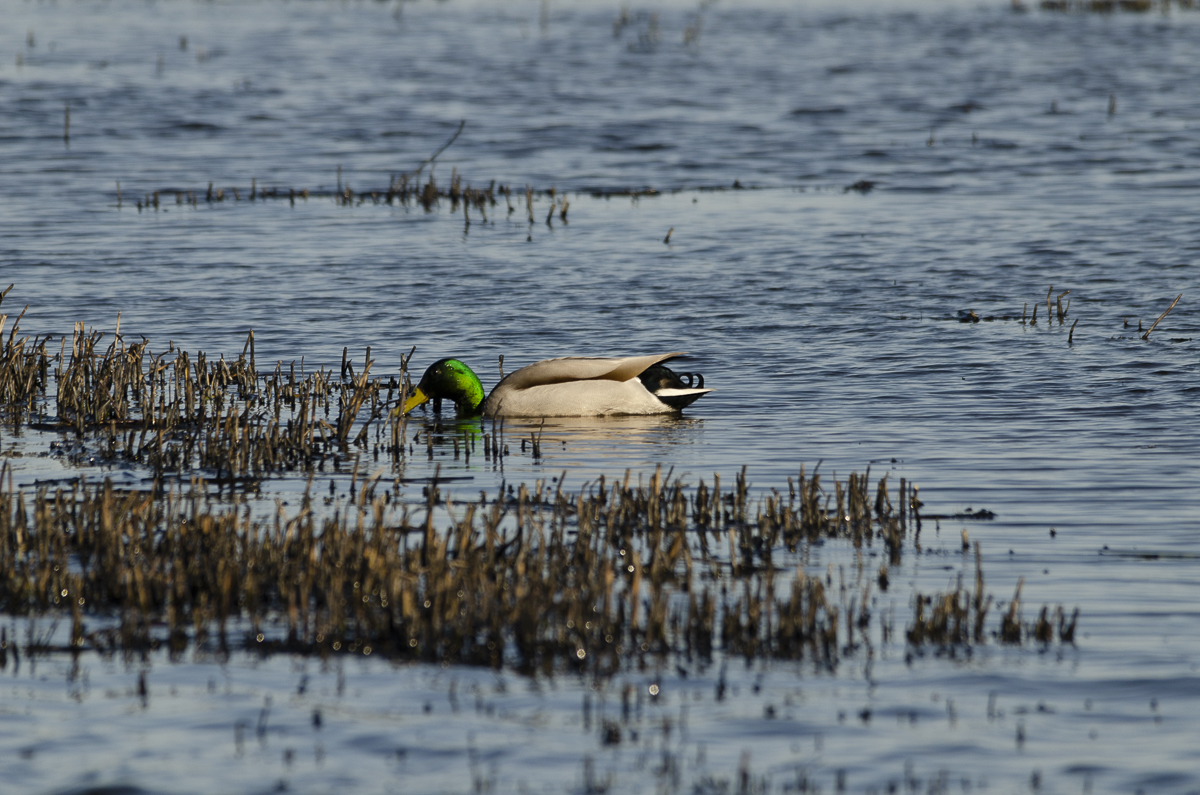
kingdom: Animalia
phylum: Chordata
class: Aves
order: Anseriformes
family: Anatidae
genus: Anas
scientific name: Anas platyrhynchos
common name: Mallard
